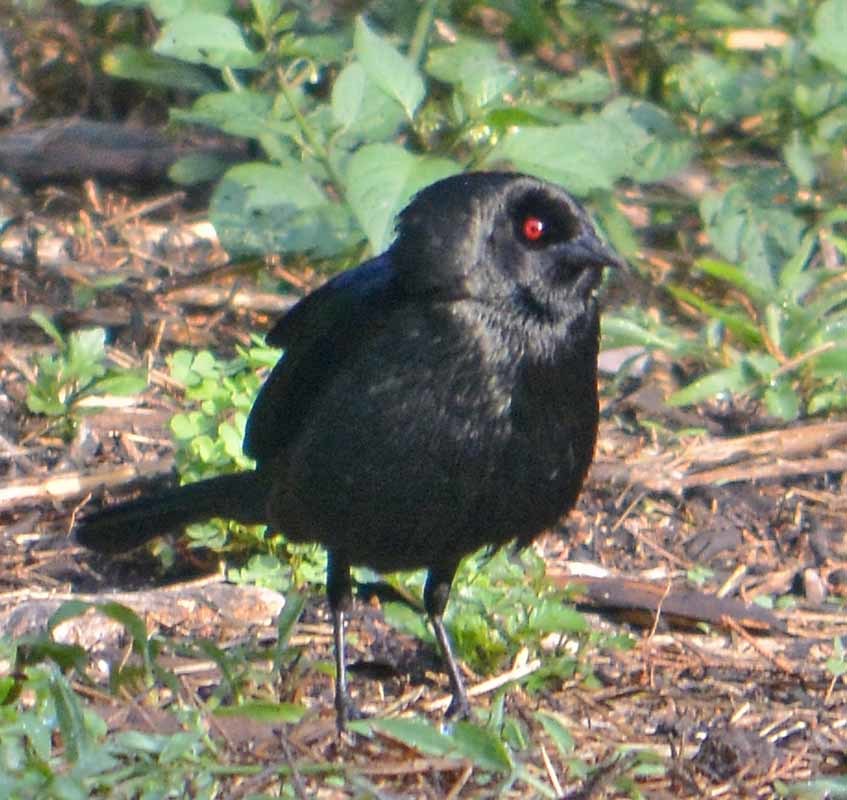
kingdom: Animalia
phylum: Chordata
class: Aves
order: Passeriformes
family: Icteridae
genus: Molothrus
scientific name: Molothrus aeneus
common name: Bronzed cowbird
